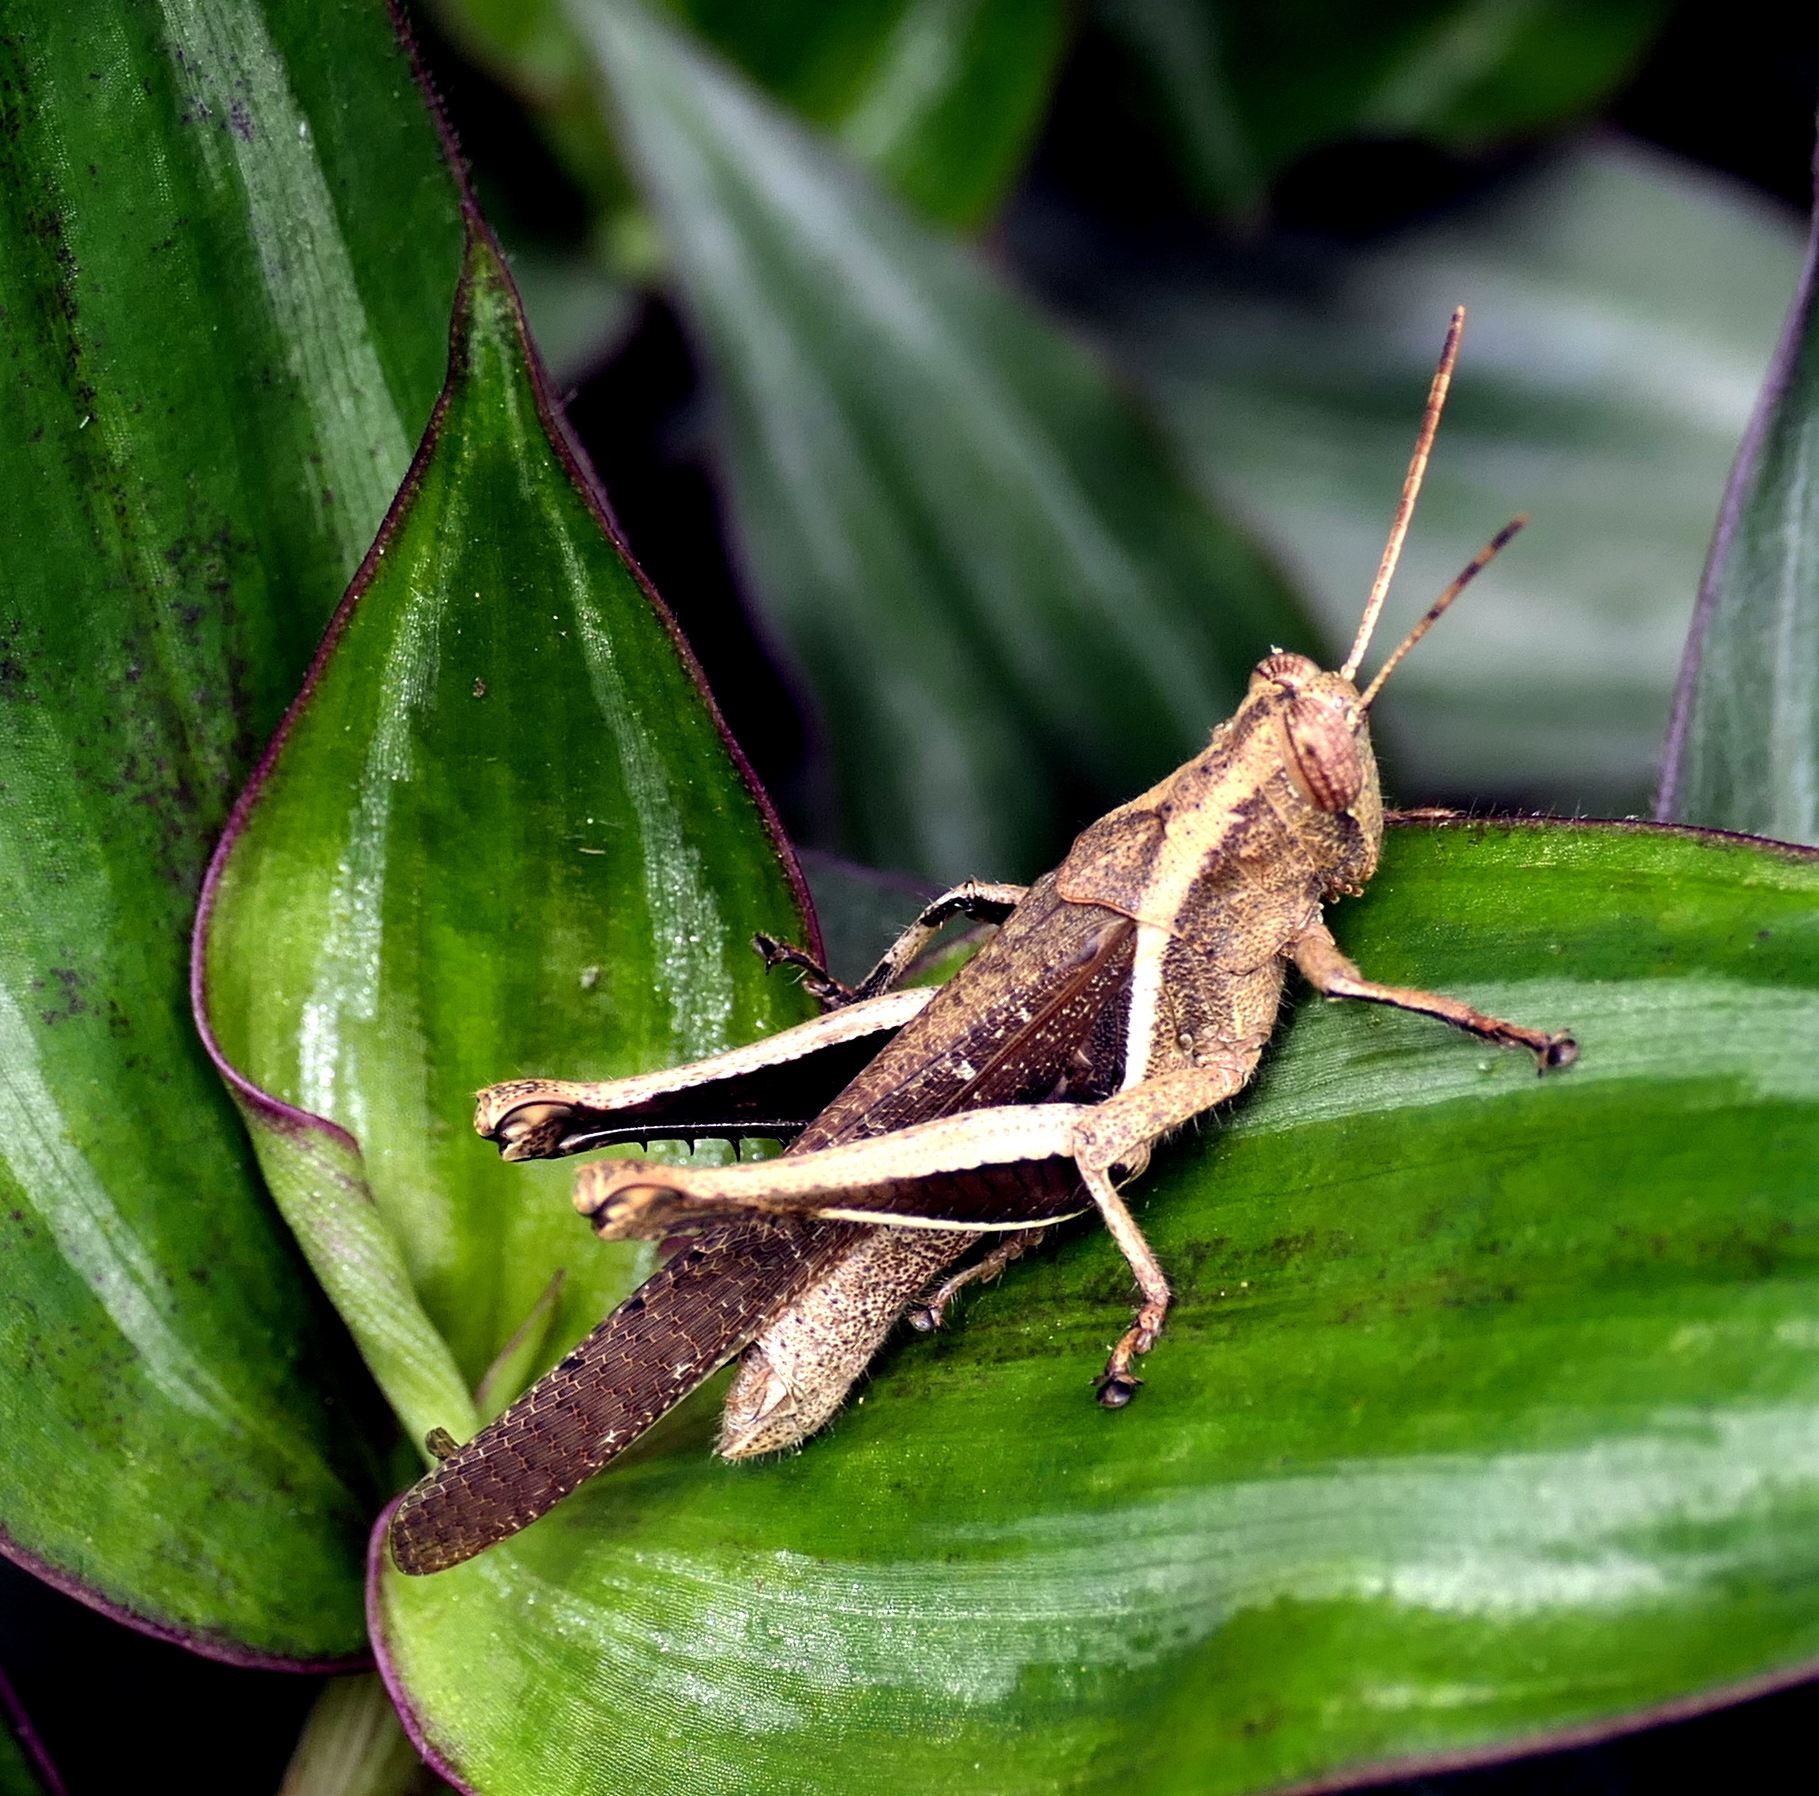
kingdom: Animalia
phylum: Arthropoda
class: Insecta
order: Orthoptera
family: Acrididae
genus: Abracris
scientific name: Abracris flavolineata
